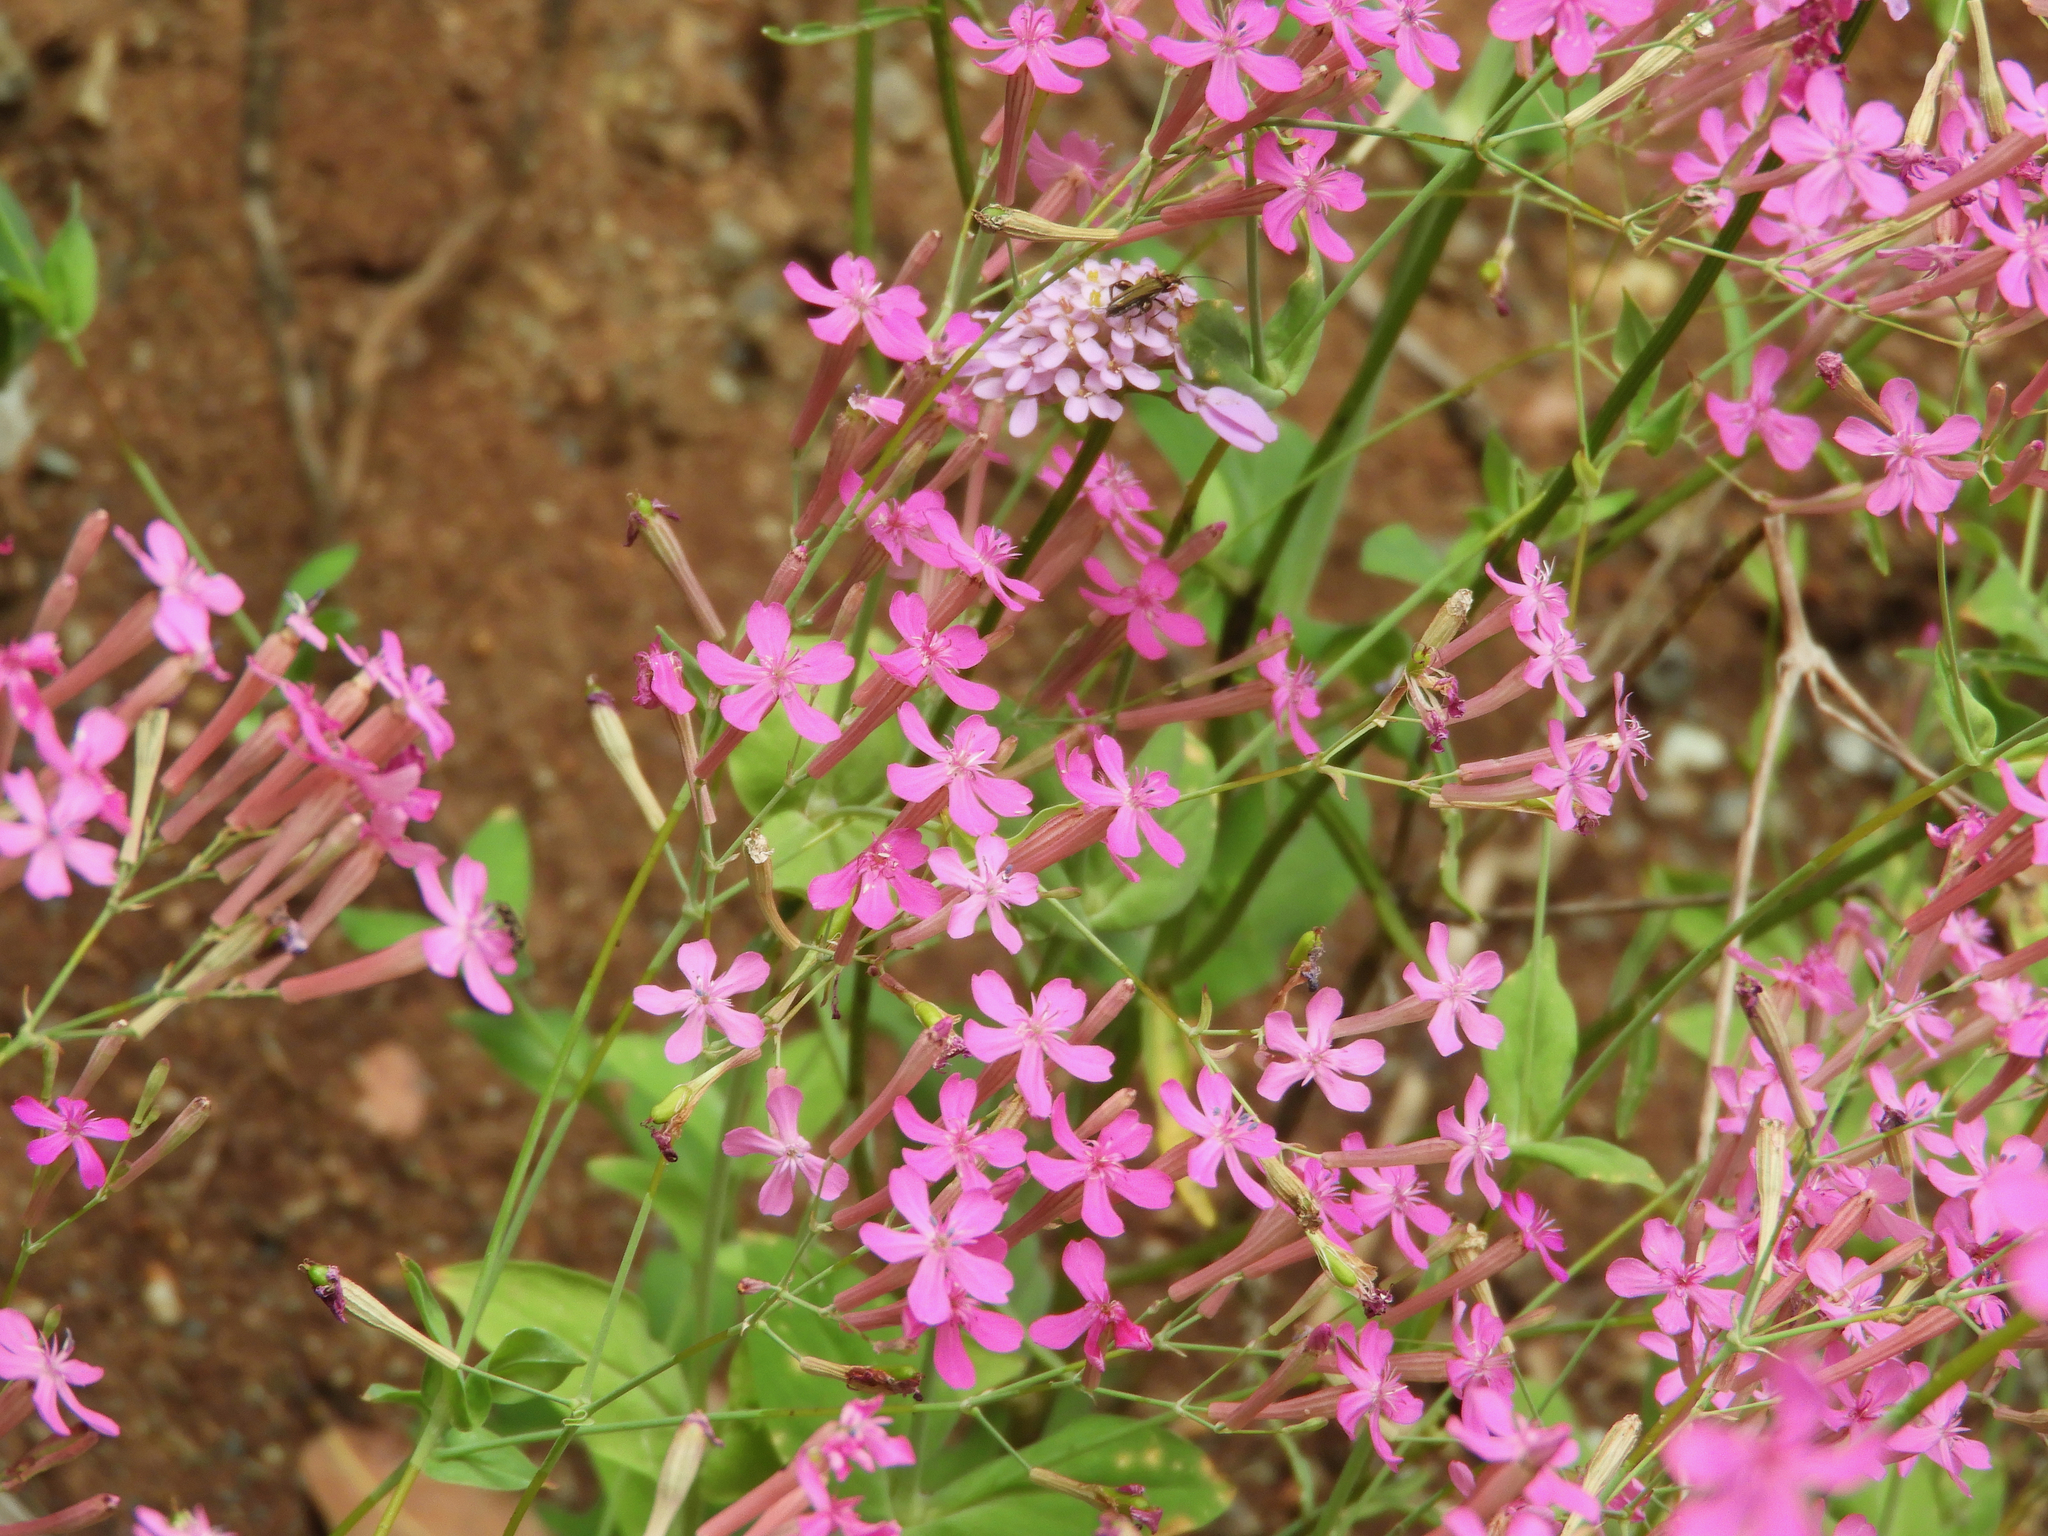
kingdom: Plantae
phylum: Tracheophyta
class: Magnoliopsida
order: Caryophyllales
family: Caryophyllaceae
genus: Atocion
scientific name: Atocion armeria
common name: Sweet william catchfly
